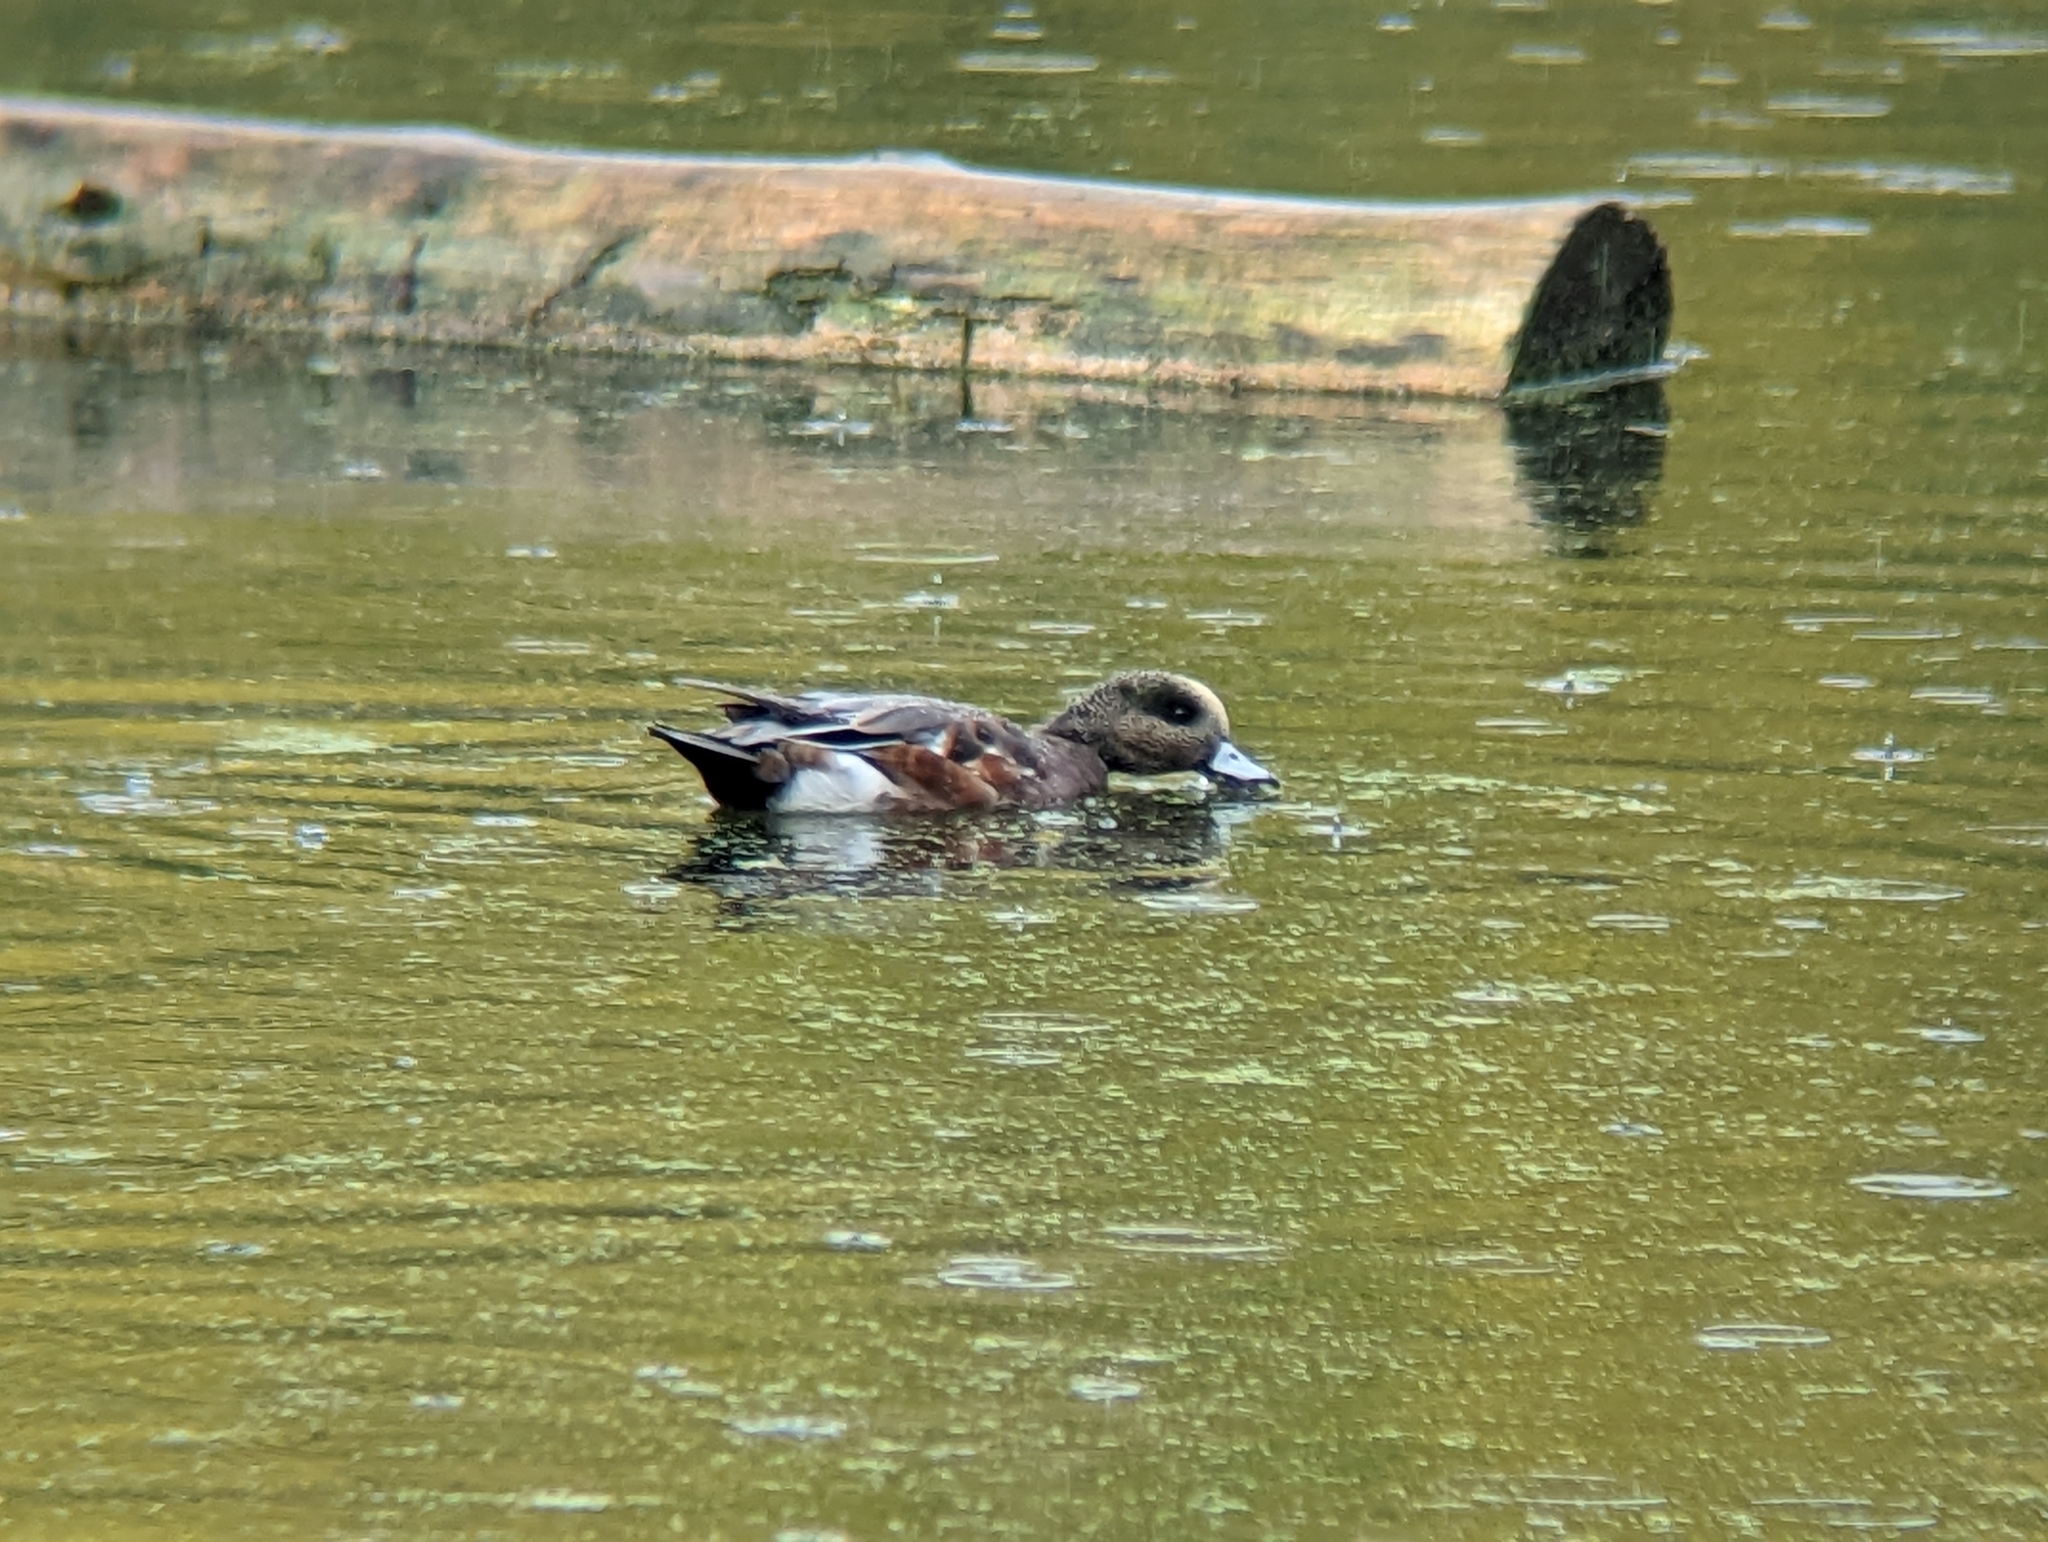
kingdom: Animalia
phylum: Chordata
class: Aves
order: Anseriformes
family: Anatidae
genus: Mareca
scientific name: Mareca americana
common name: American wigeon
